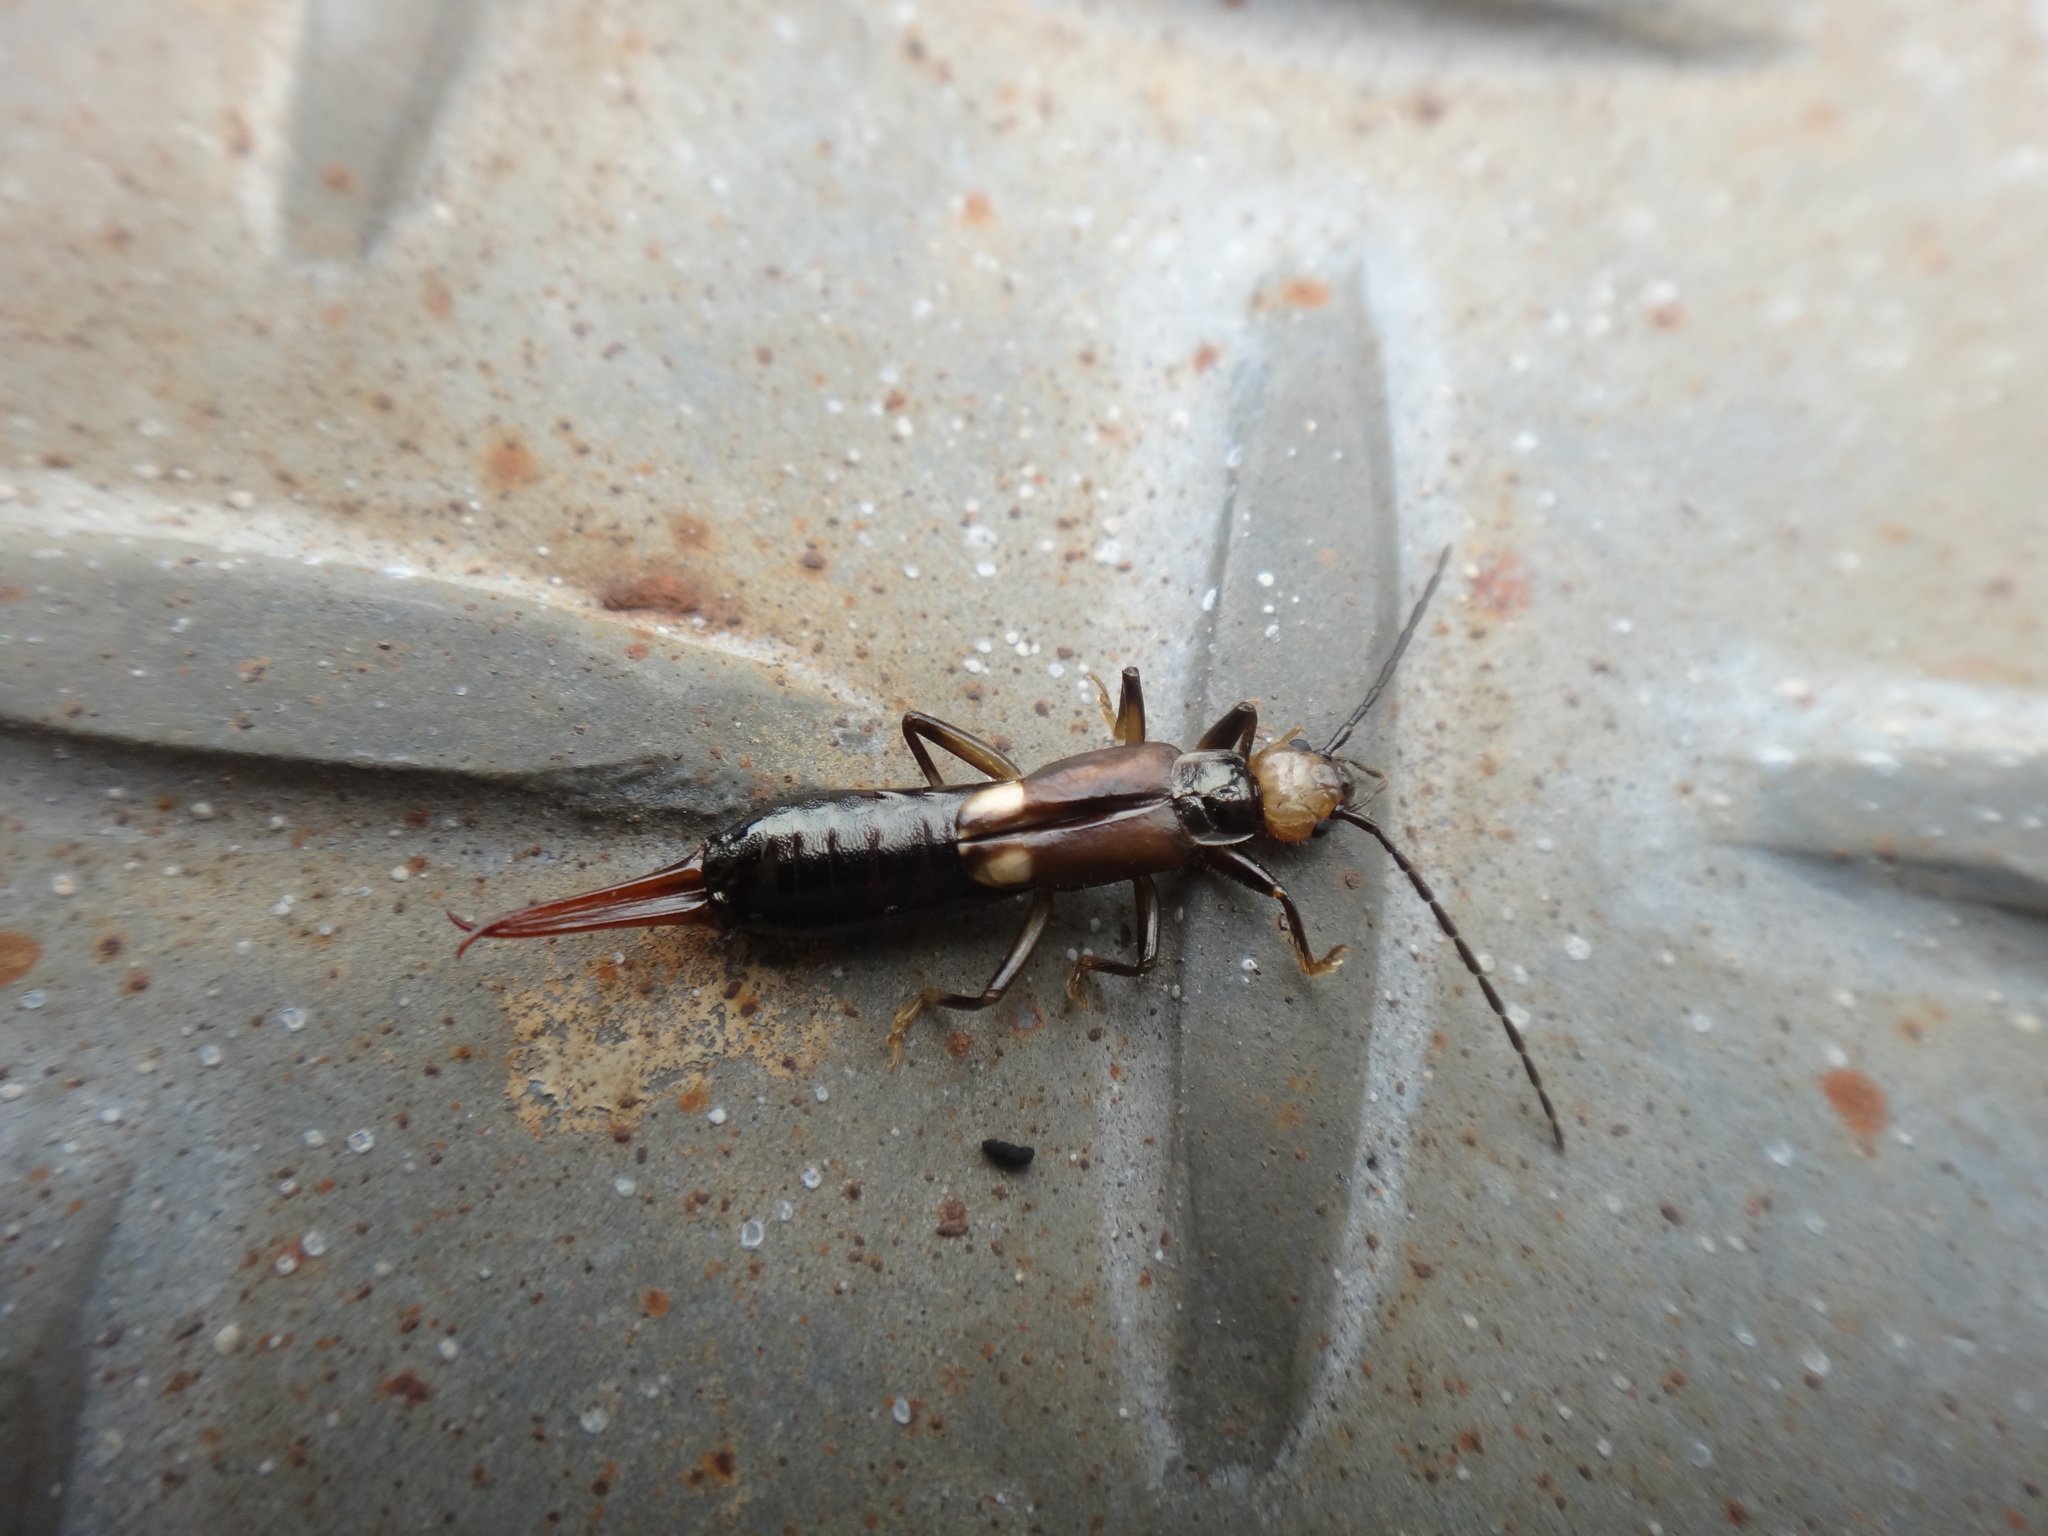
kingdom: Animalia
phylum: Arthropoda
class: Insecta
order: Dermaptera
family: Forficulidae
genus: Paratimomenus
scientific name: Paratimomenus flavocapitata
